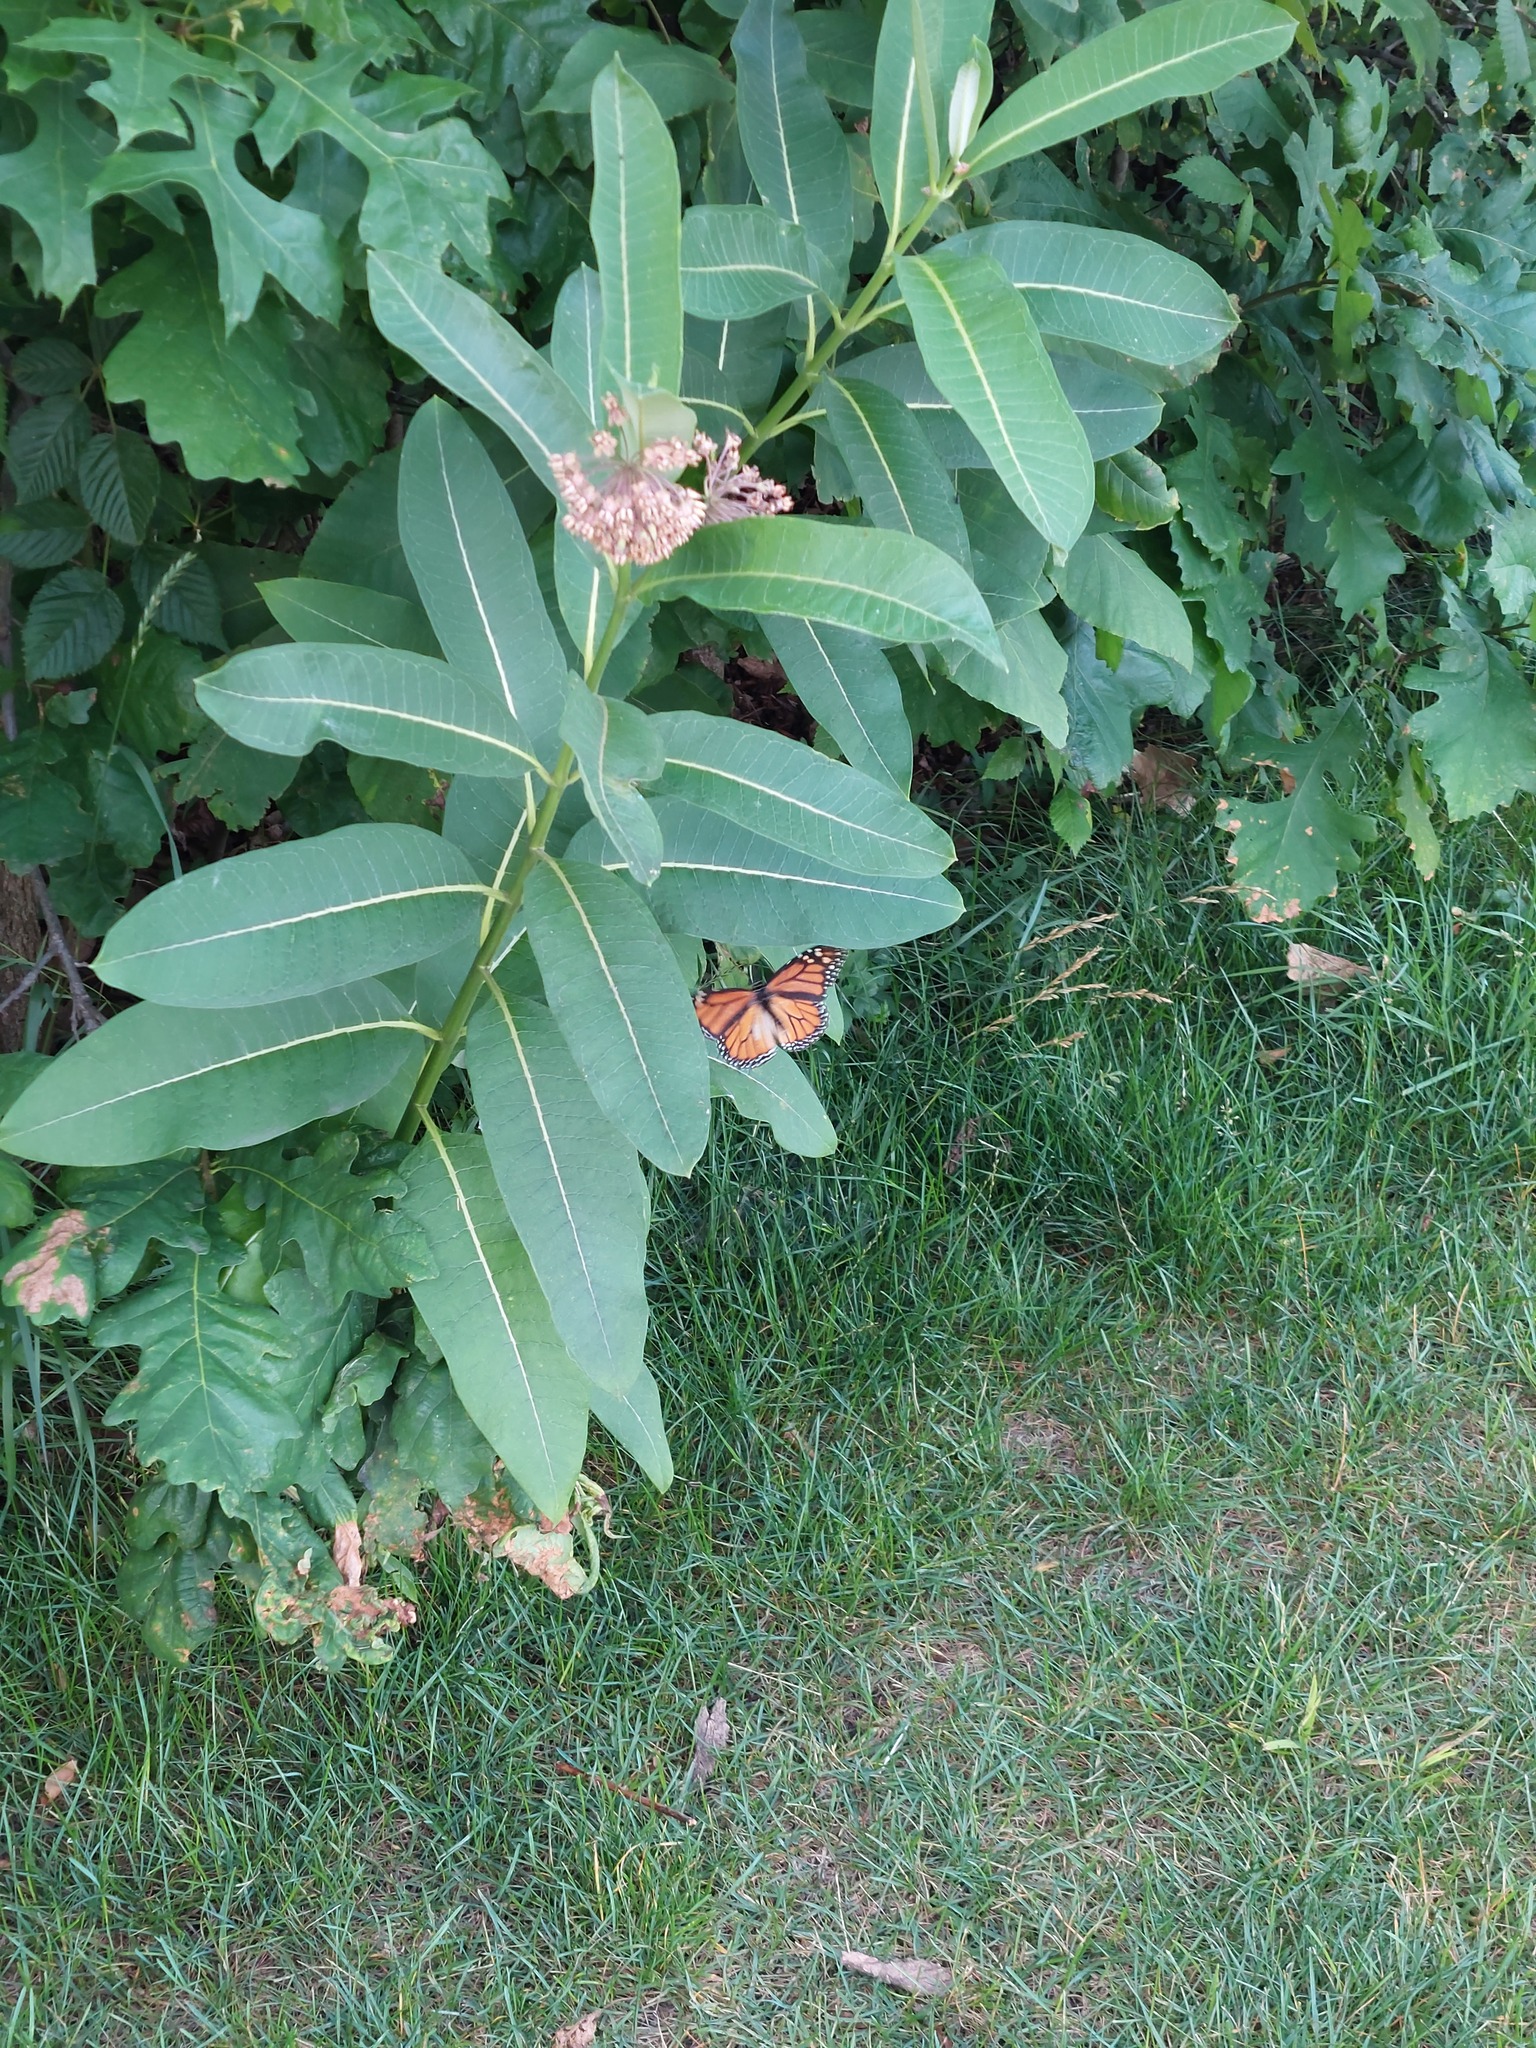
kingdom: Animalia
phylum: Arthropoda
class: Insecta
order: Lepidoptera
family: Nymphalidae
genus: Danaus
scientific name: Danaus plexippus
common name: Monarch
